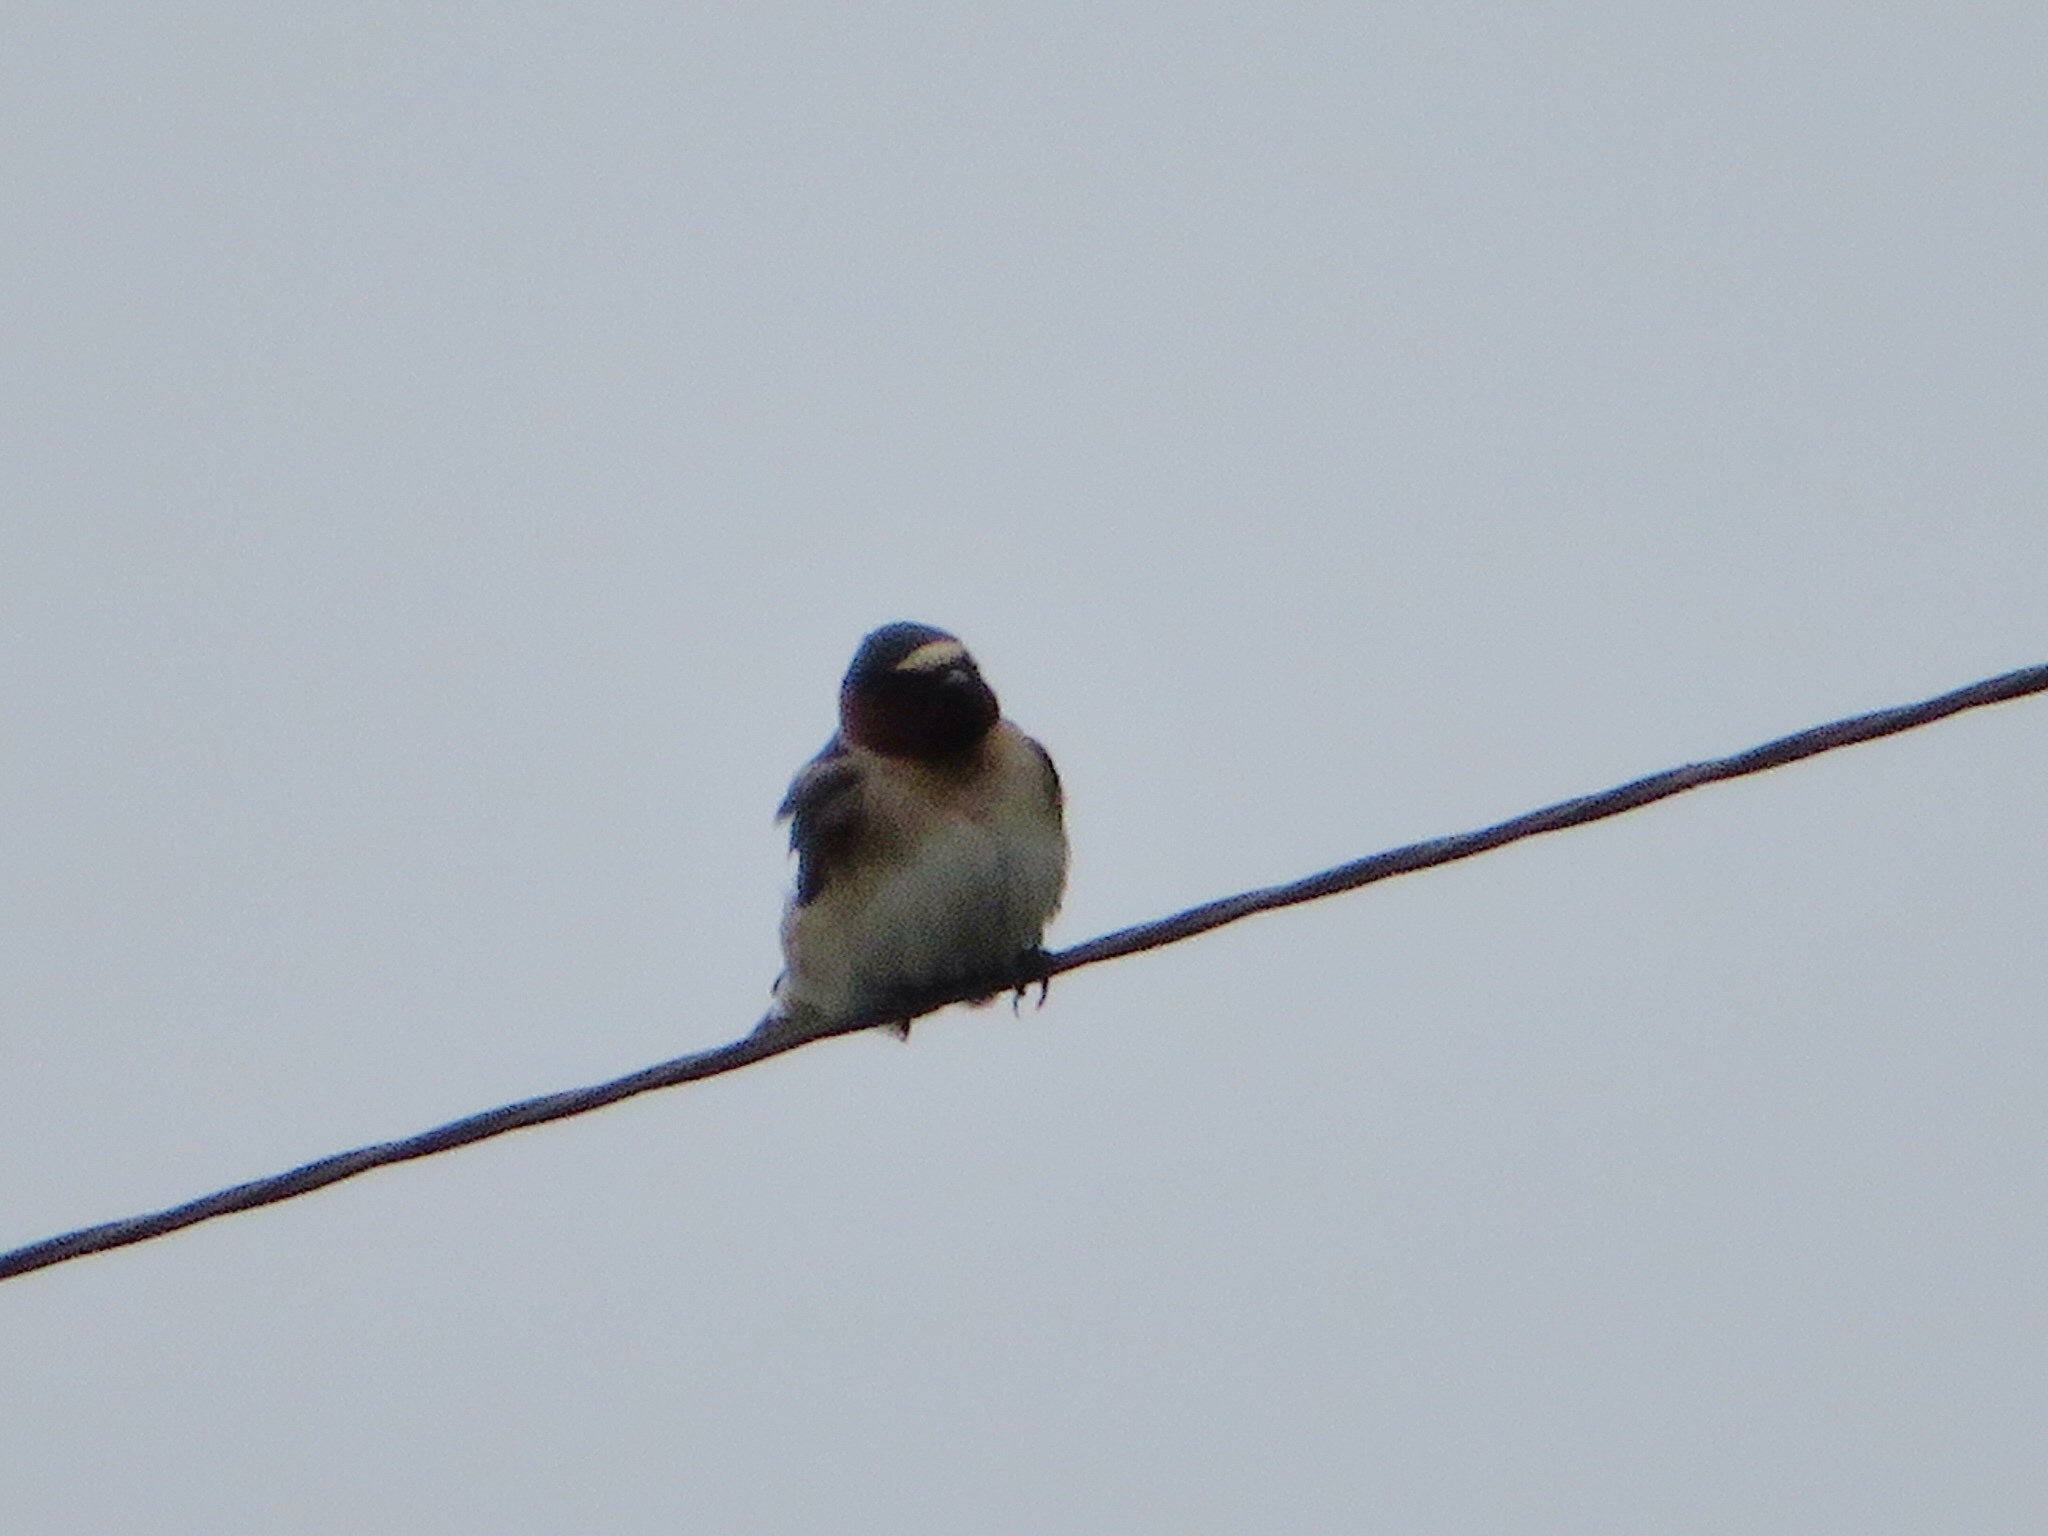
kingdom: Animalia
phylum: Chordata
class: Aves
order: Passeriformes
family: Hirundinidae
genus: Petrochelidon
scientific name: Petrochelidon pyrrhonota
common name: American cliff swallow
